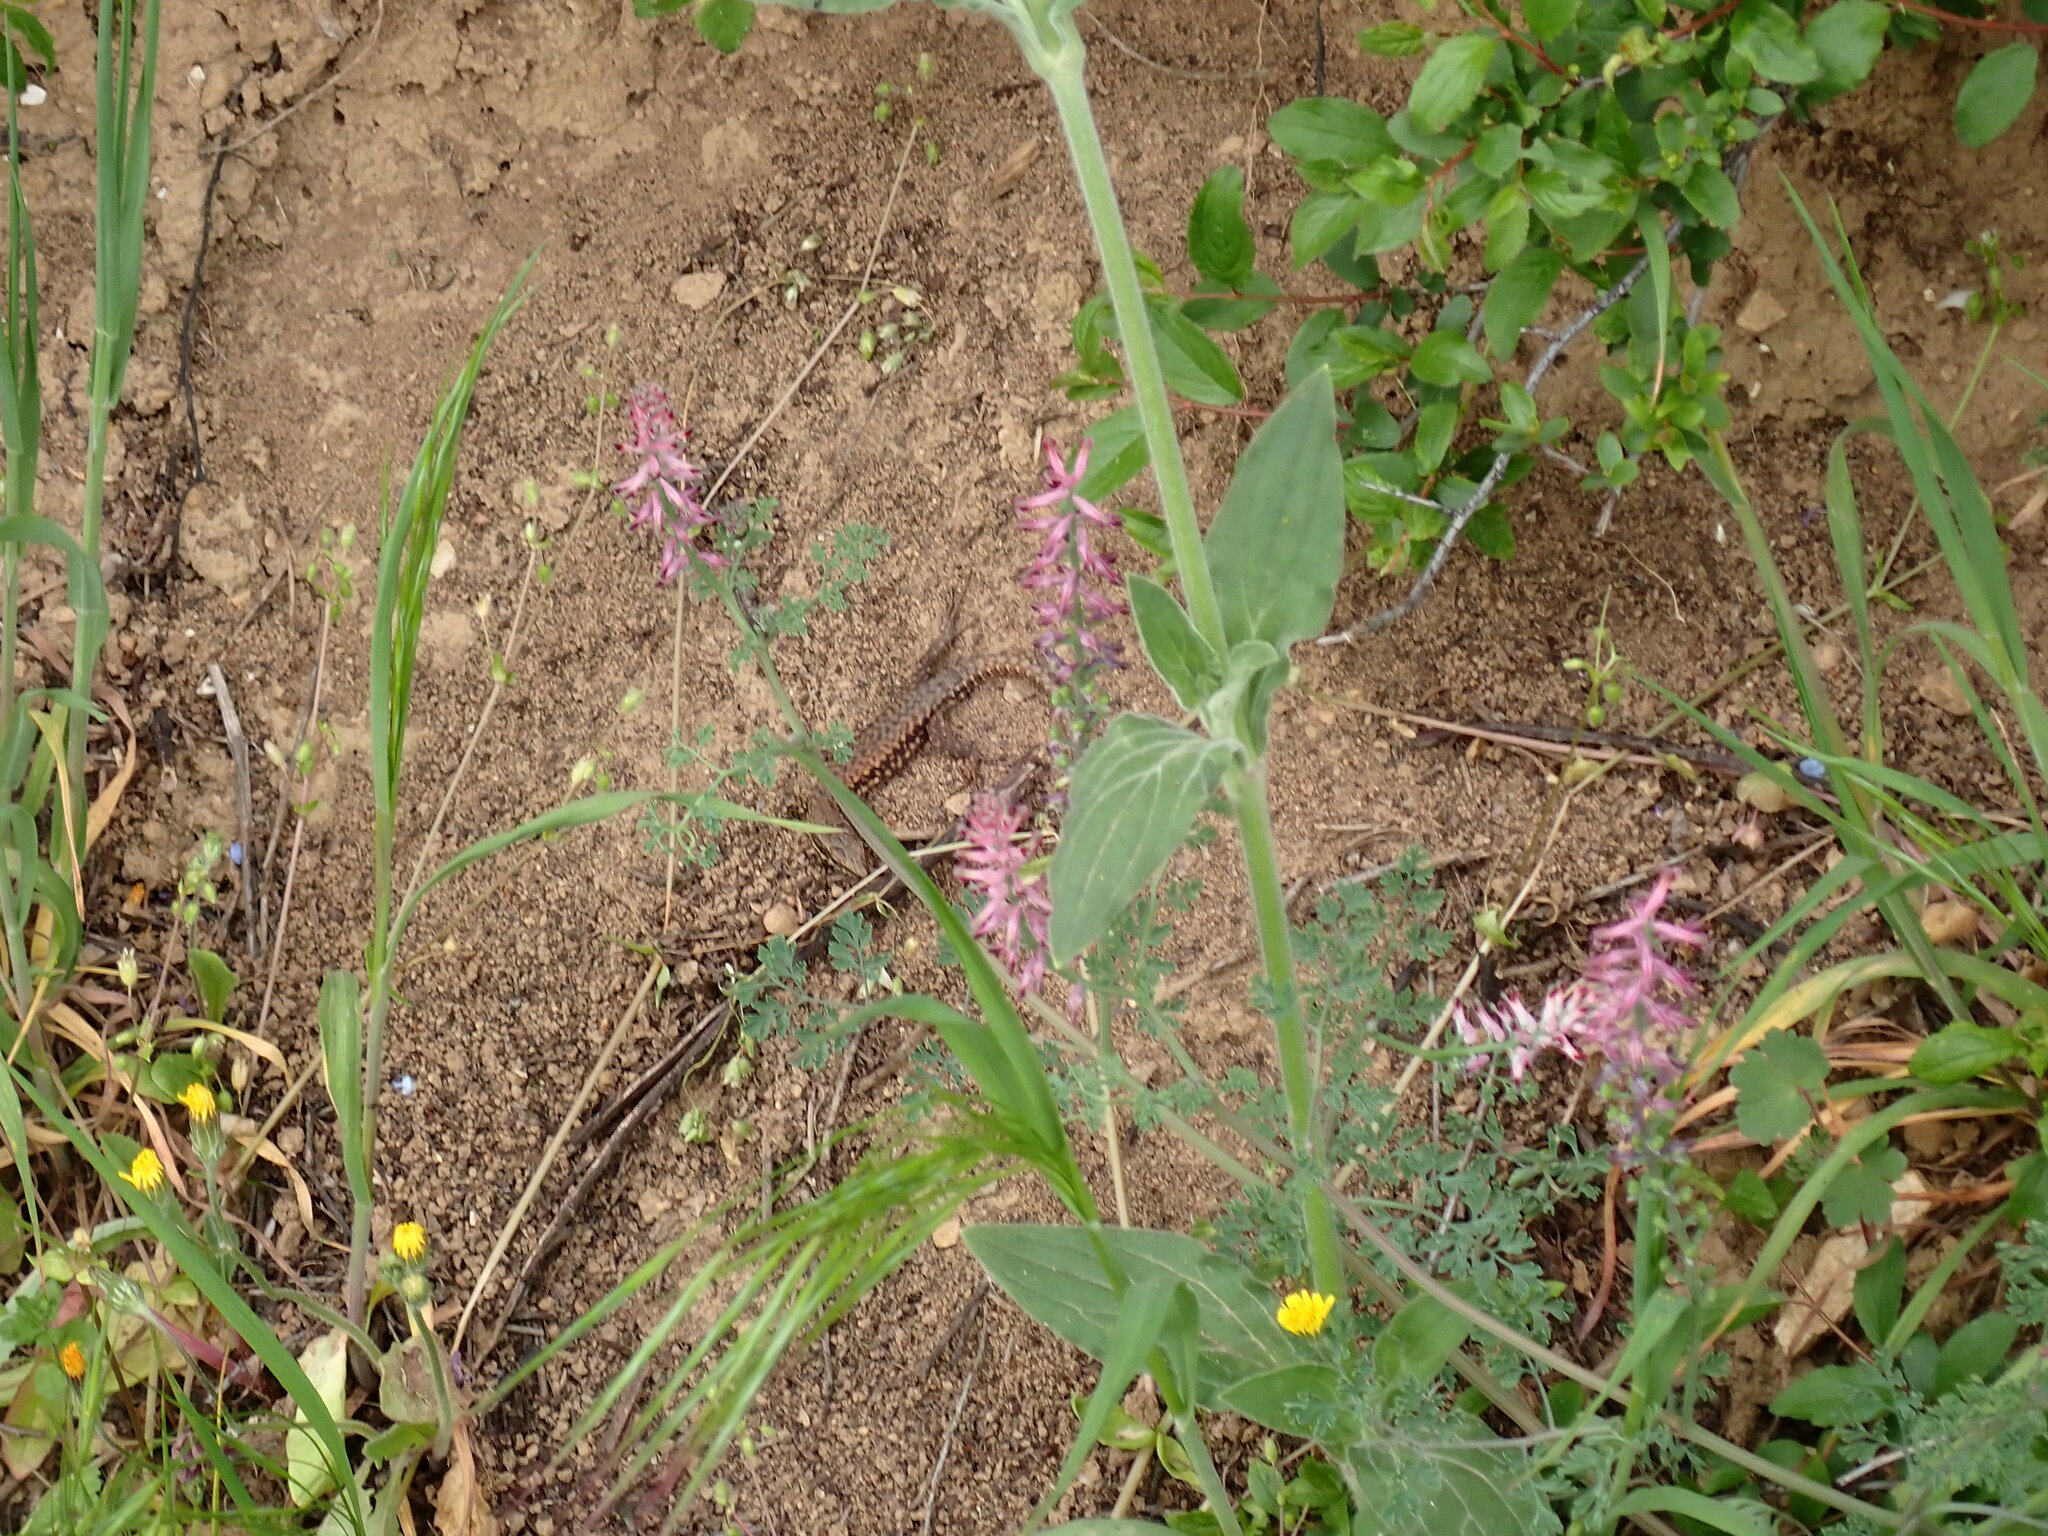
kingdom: Animalia
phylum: Chordata
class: Squamata
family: Lacertidae
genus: Podarcis
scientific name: Podarcis muralis
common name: Common wall lizard
